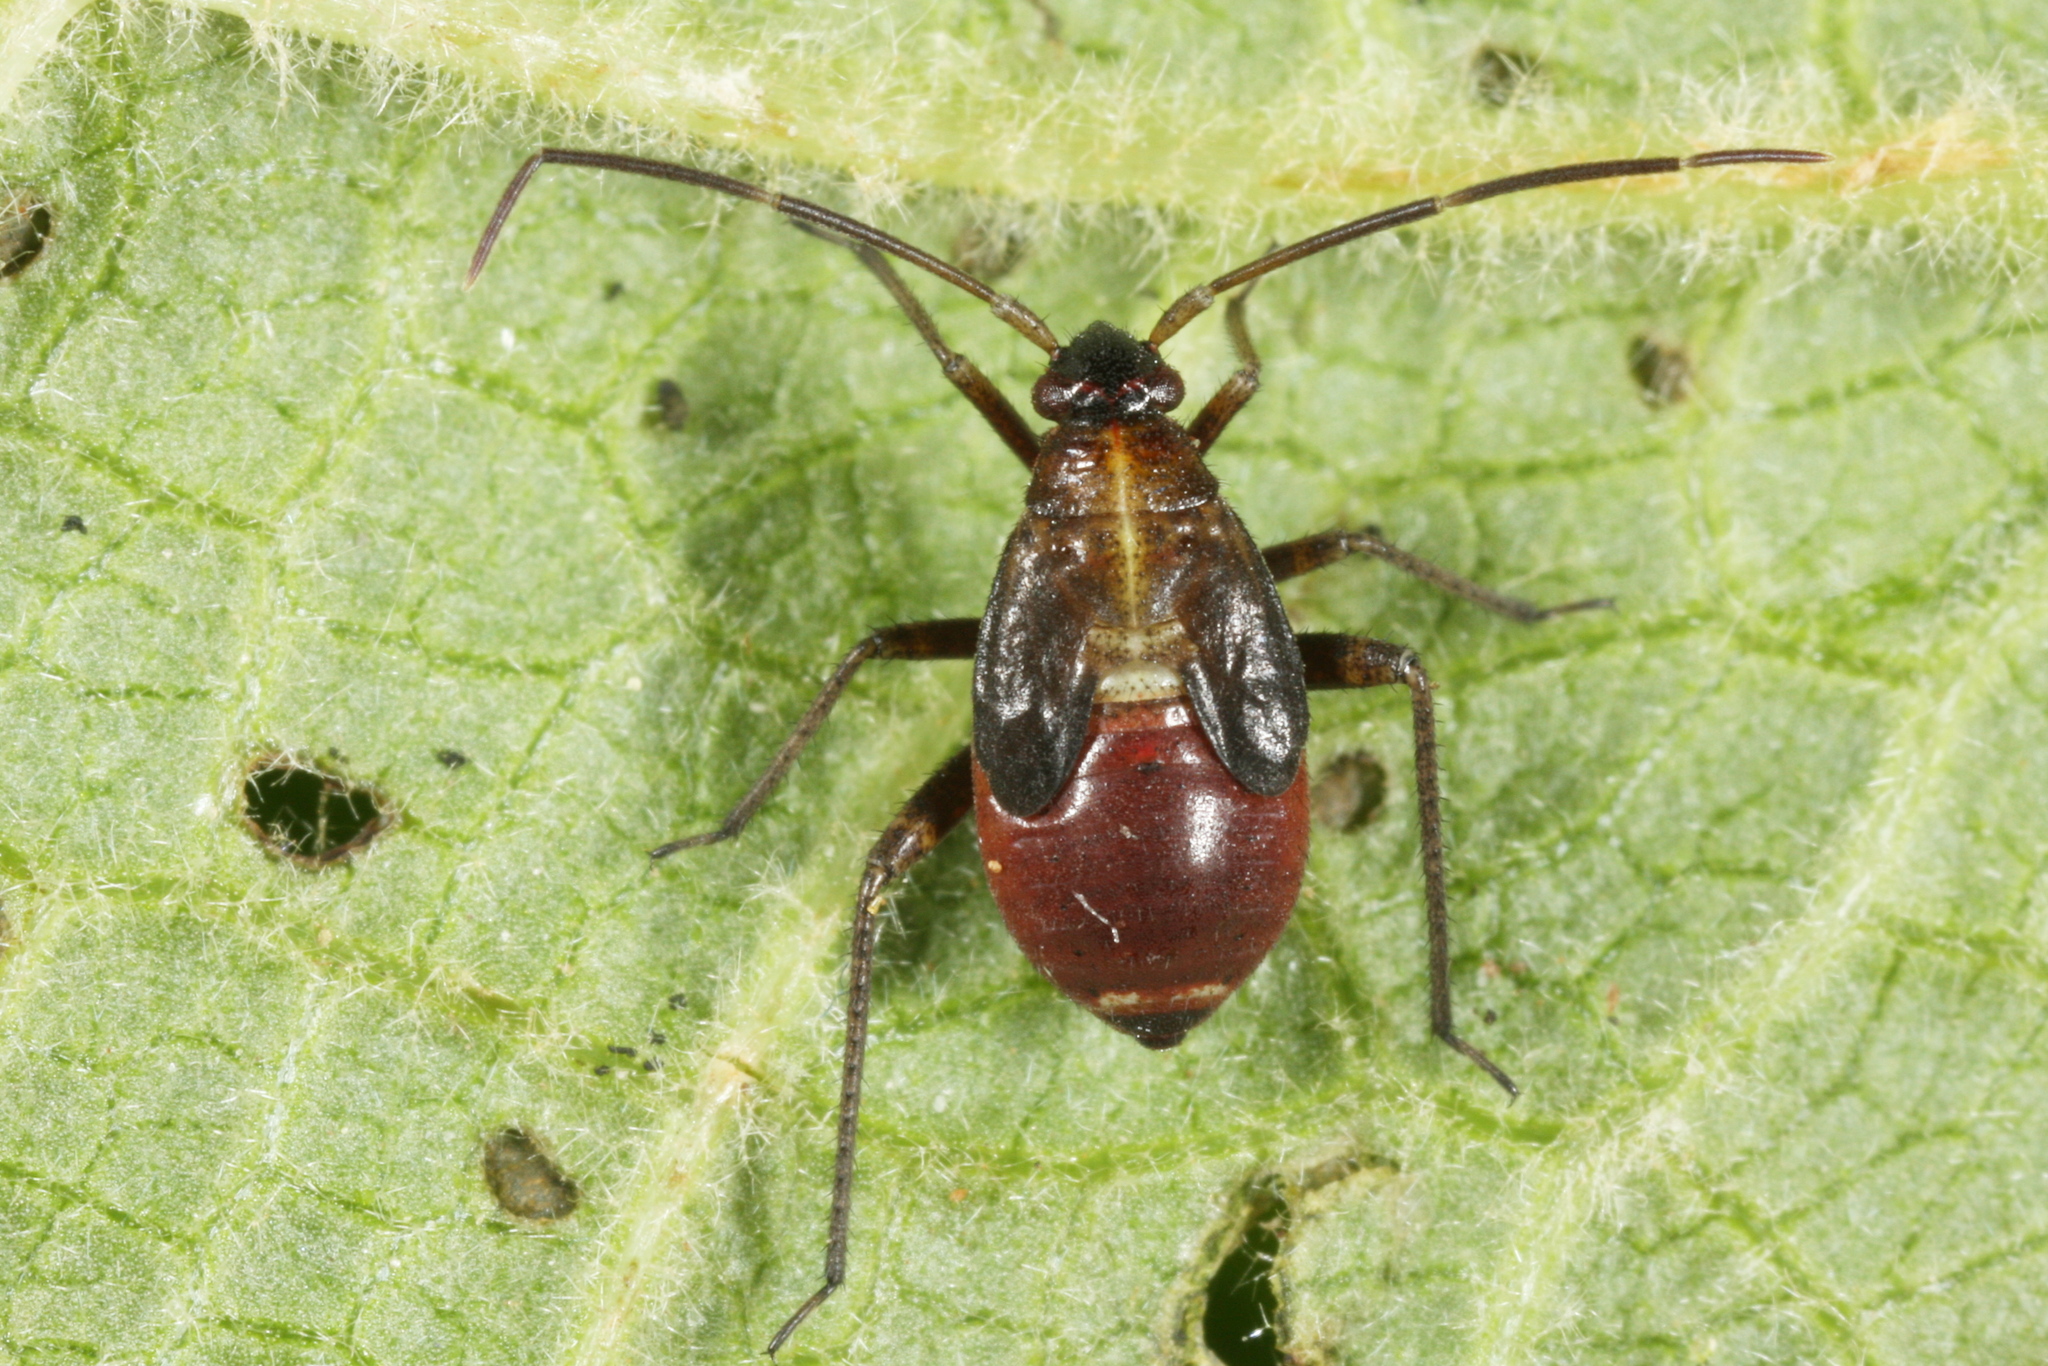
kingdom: Animalia
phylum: Arthropoda
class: Insecta
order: Hemiptera
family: Miridae
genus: Adelphocoris
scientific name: Adelphocoris seticornis
